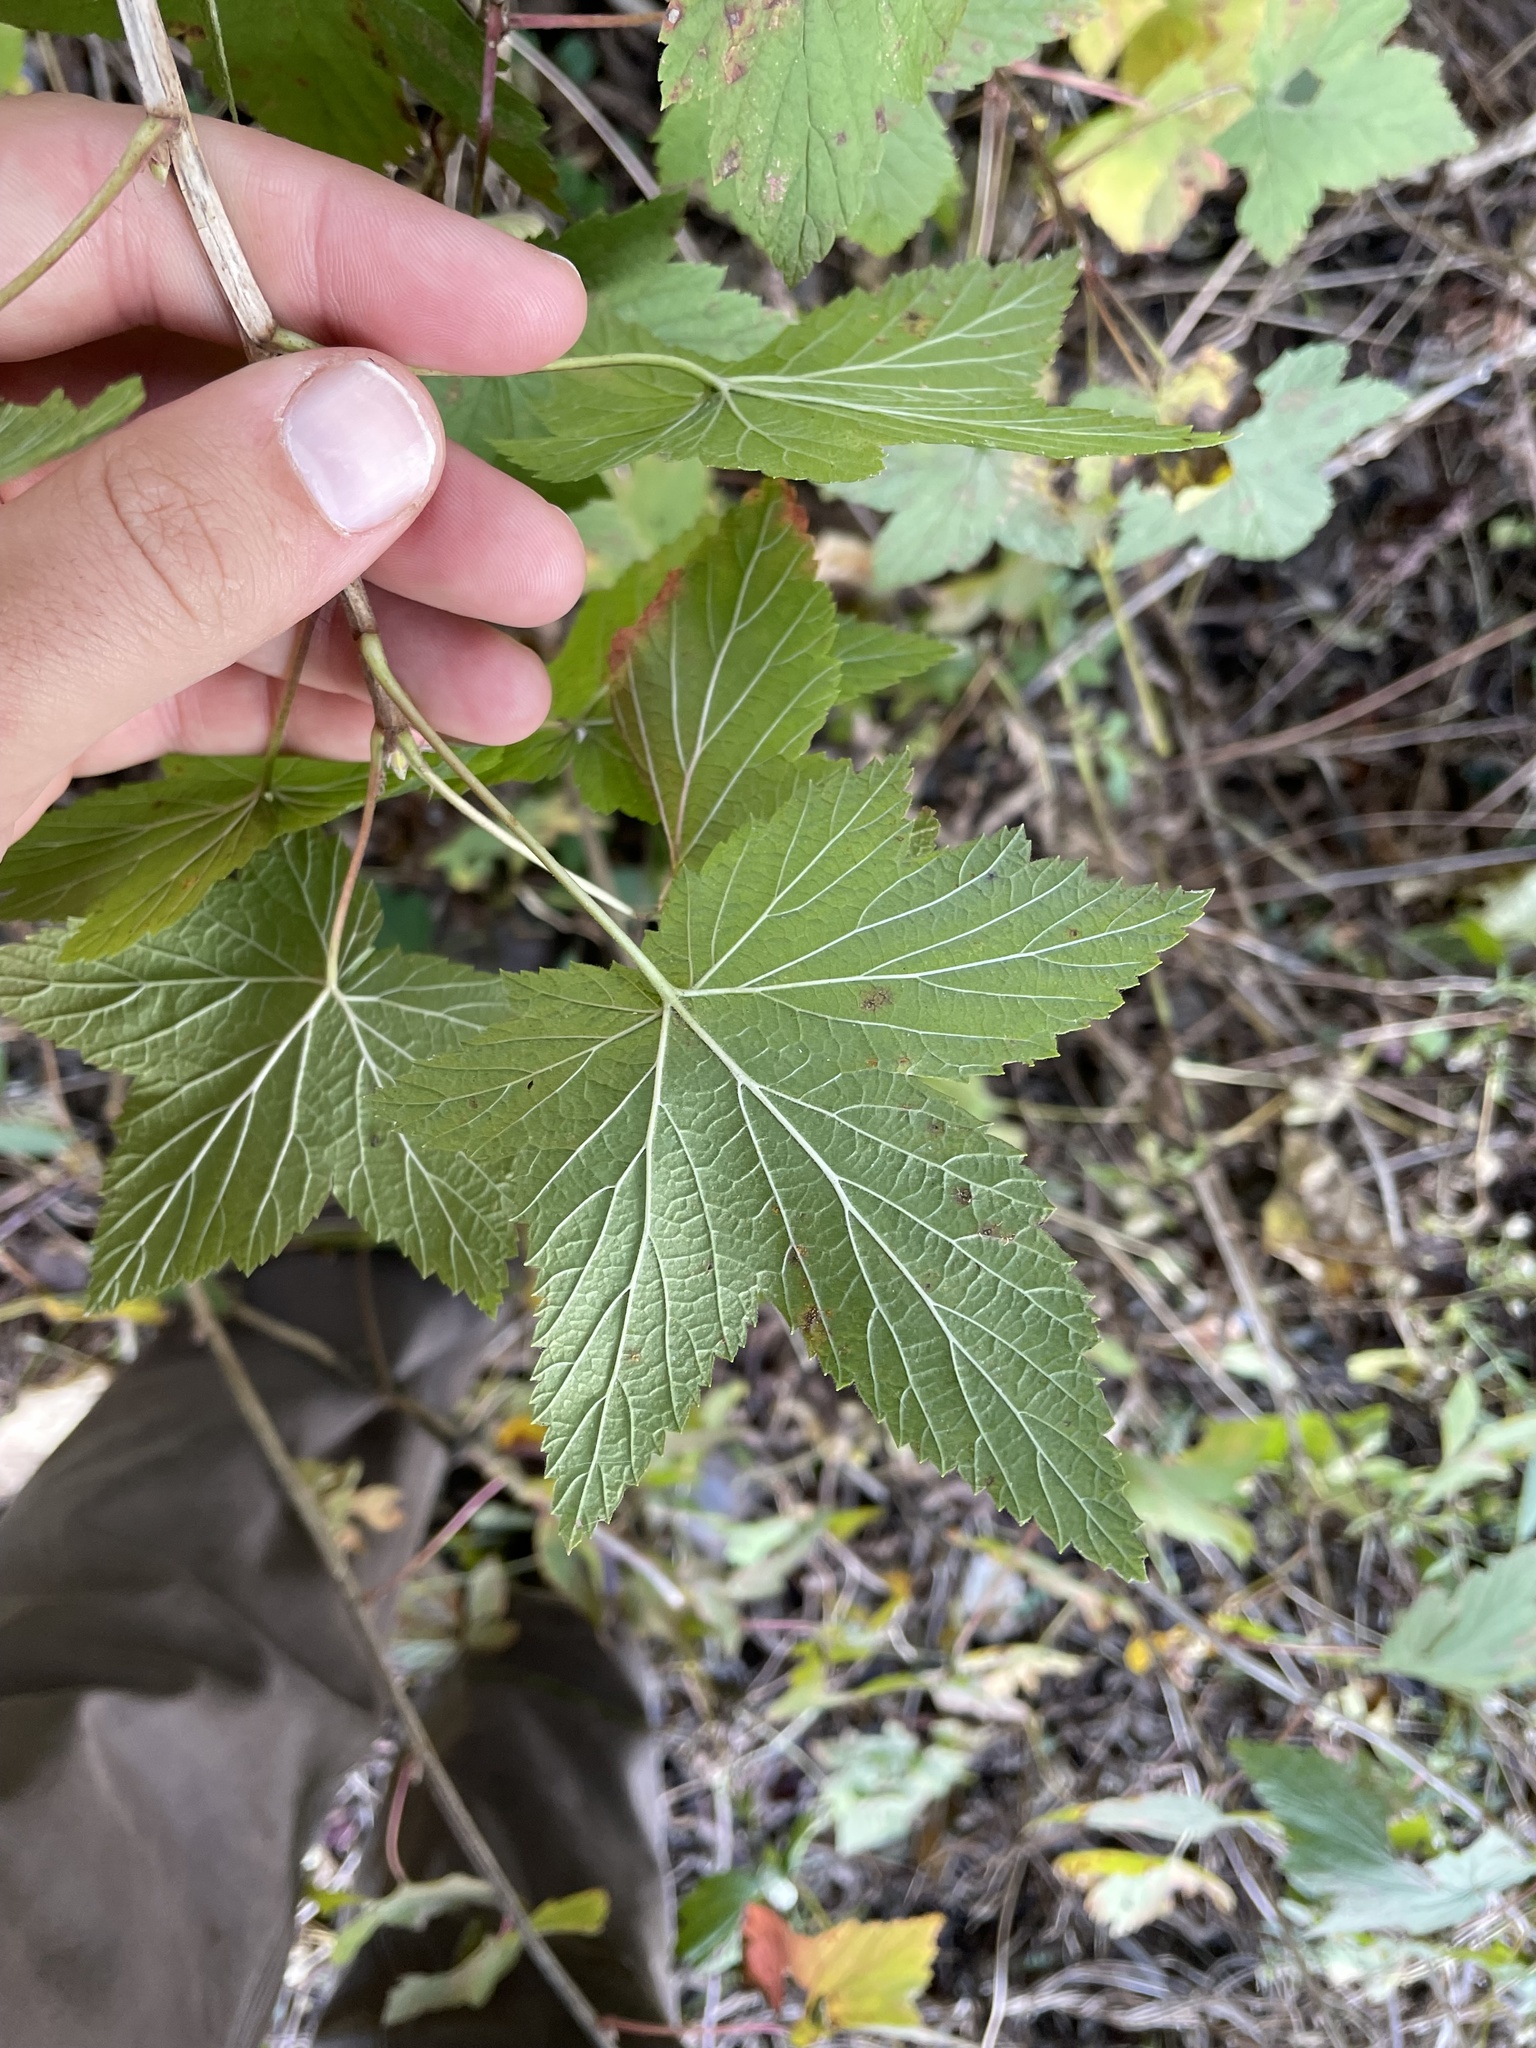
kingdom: Plantae
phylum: Tracheophyta
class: Magnoliopsida
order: Saxifragales
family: Grossulariaceae
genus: Ribes
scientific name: Ribes americanum
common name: American black currant
